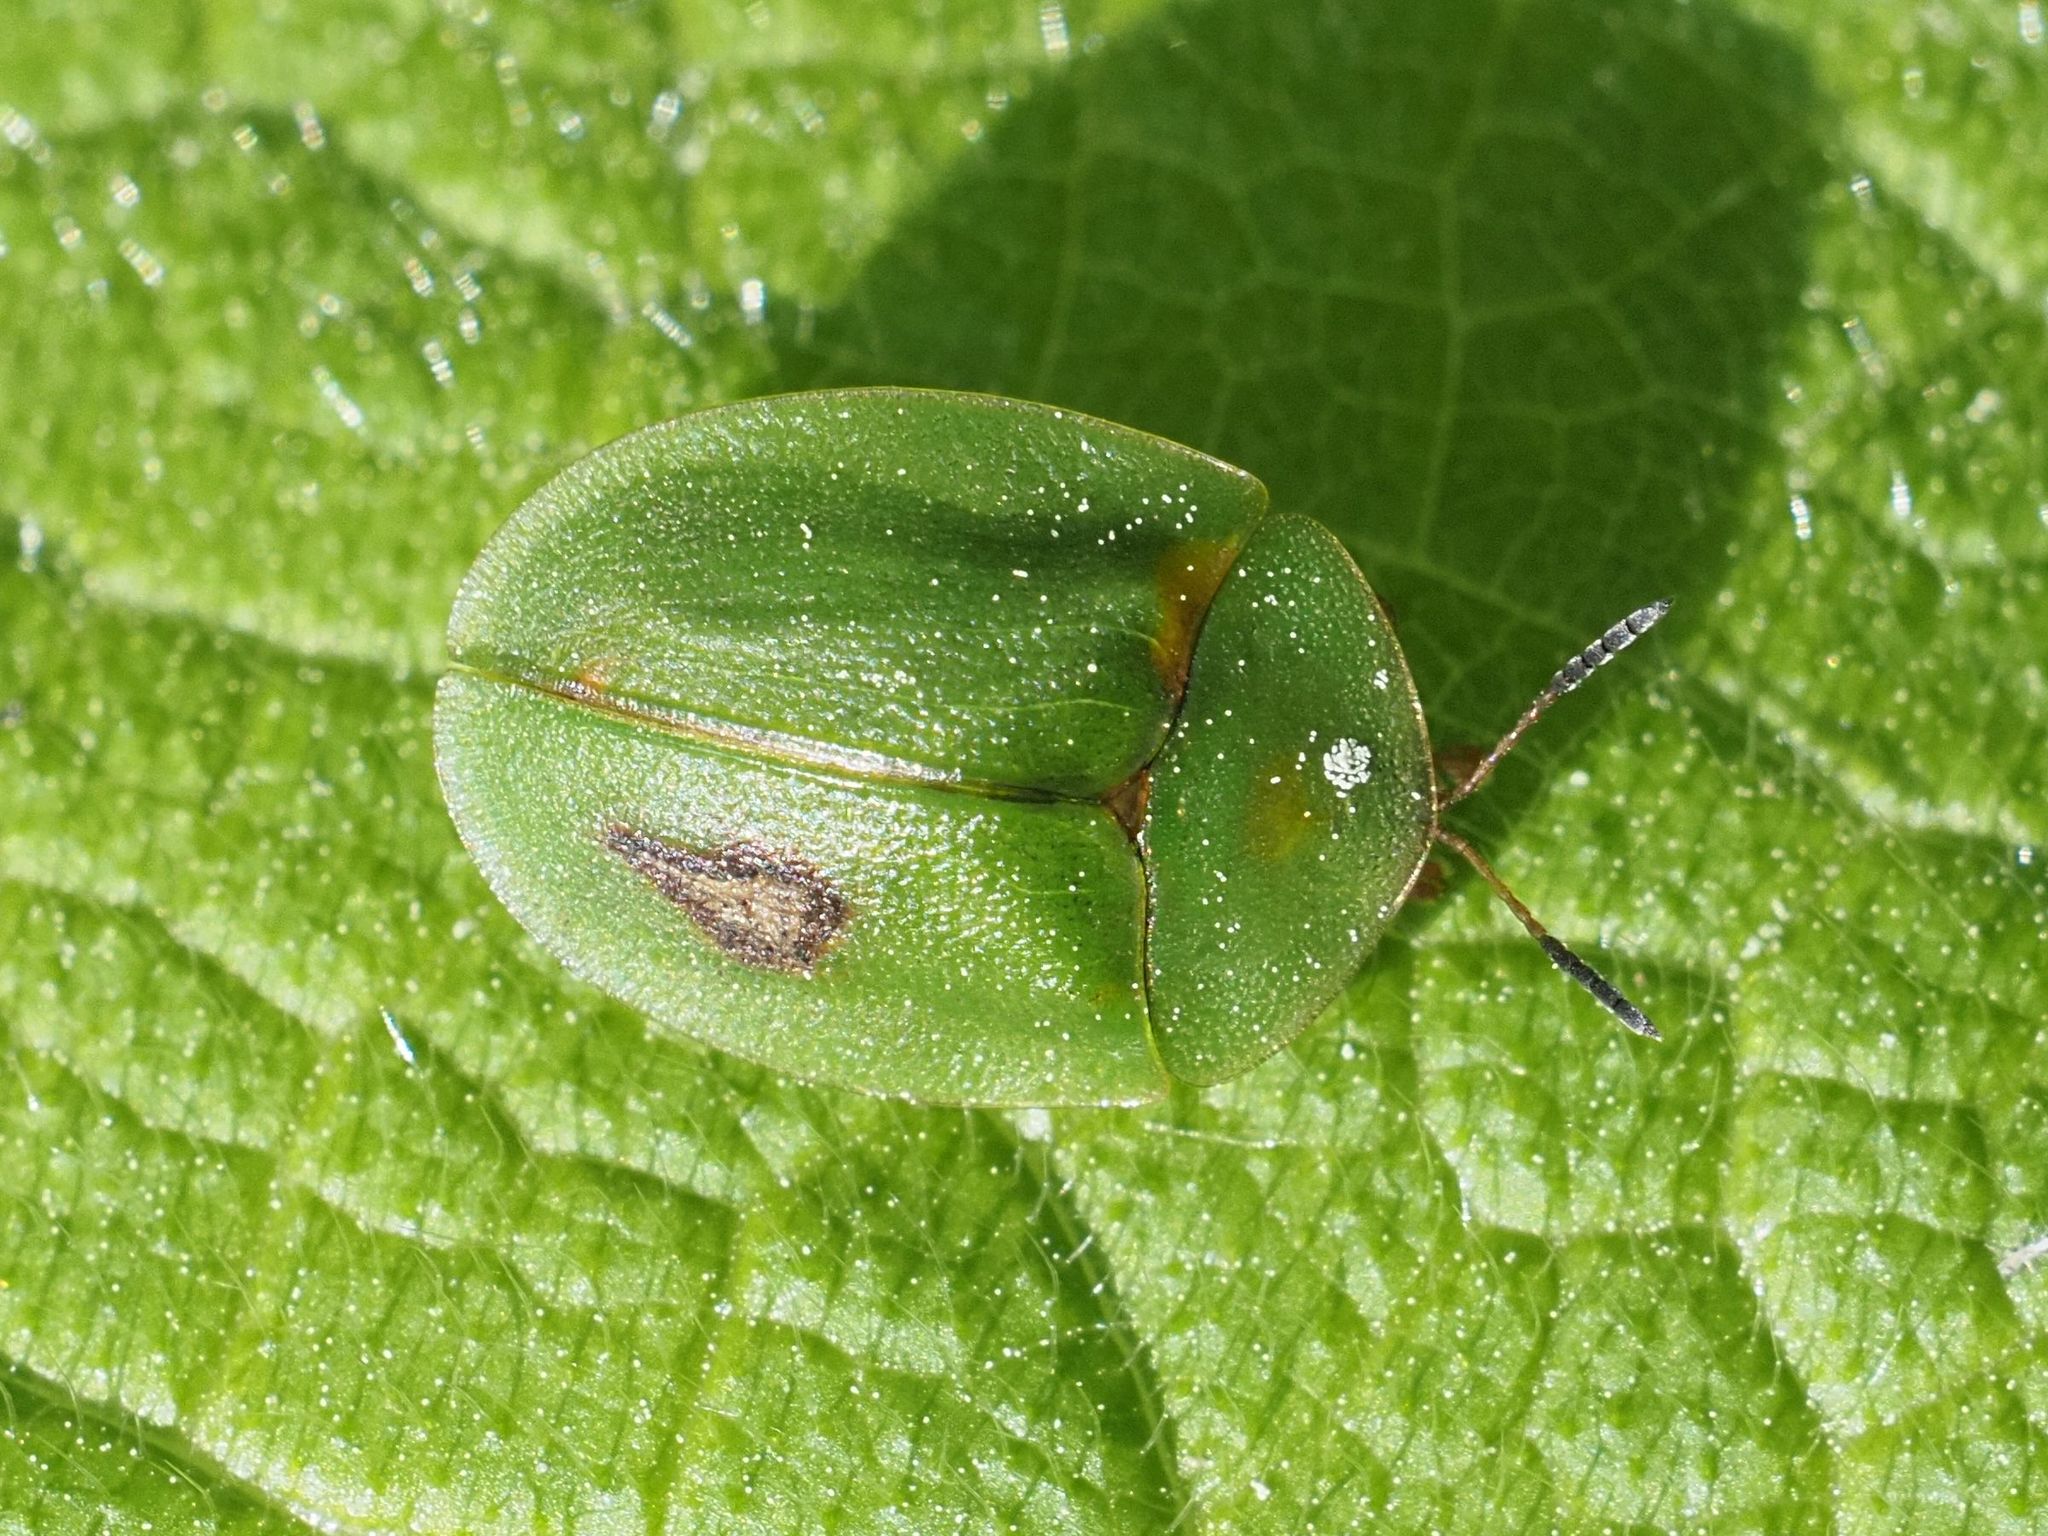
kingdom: Animalia
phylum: Arthropoda
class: Insecta
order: Coleoptera
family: Chrysomelidae
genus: Cassida
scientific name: Cassida viridis
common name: Green tortoise beetle
